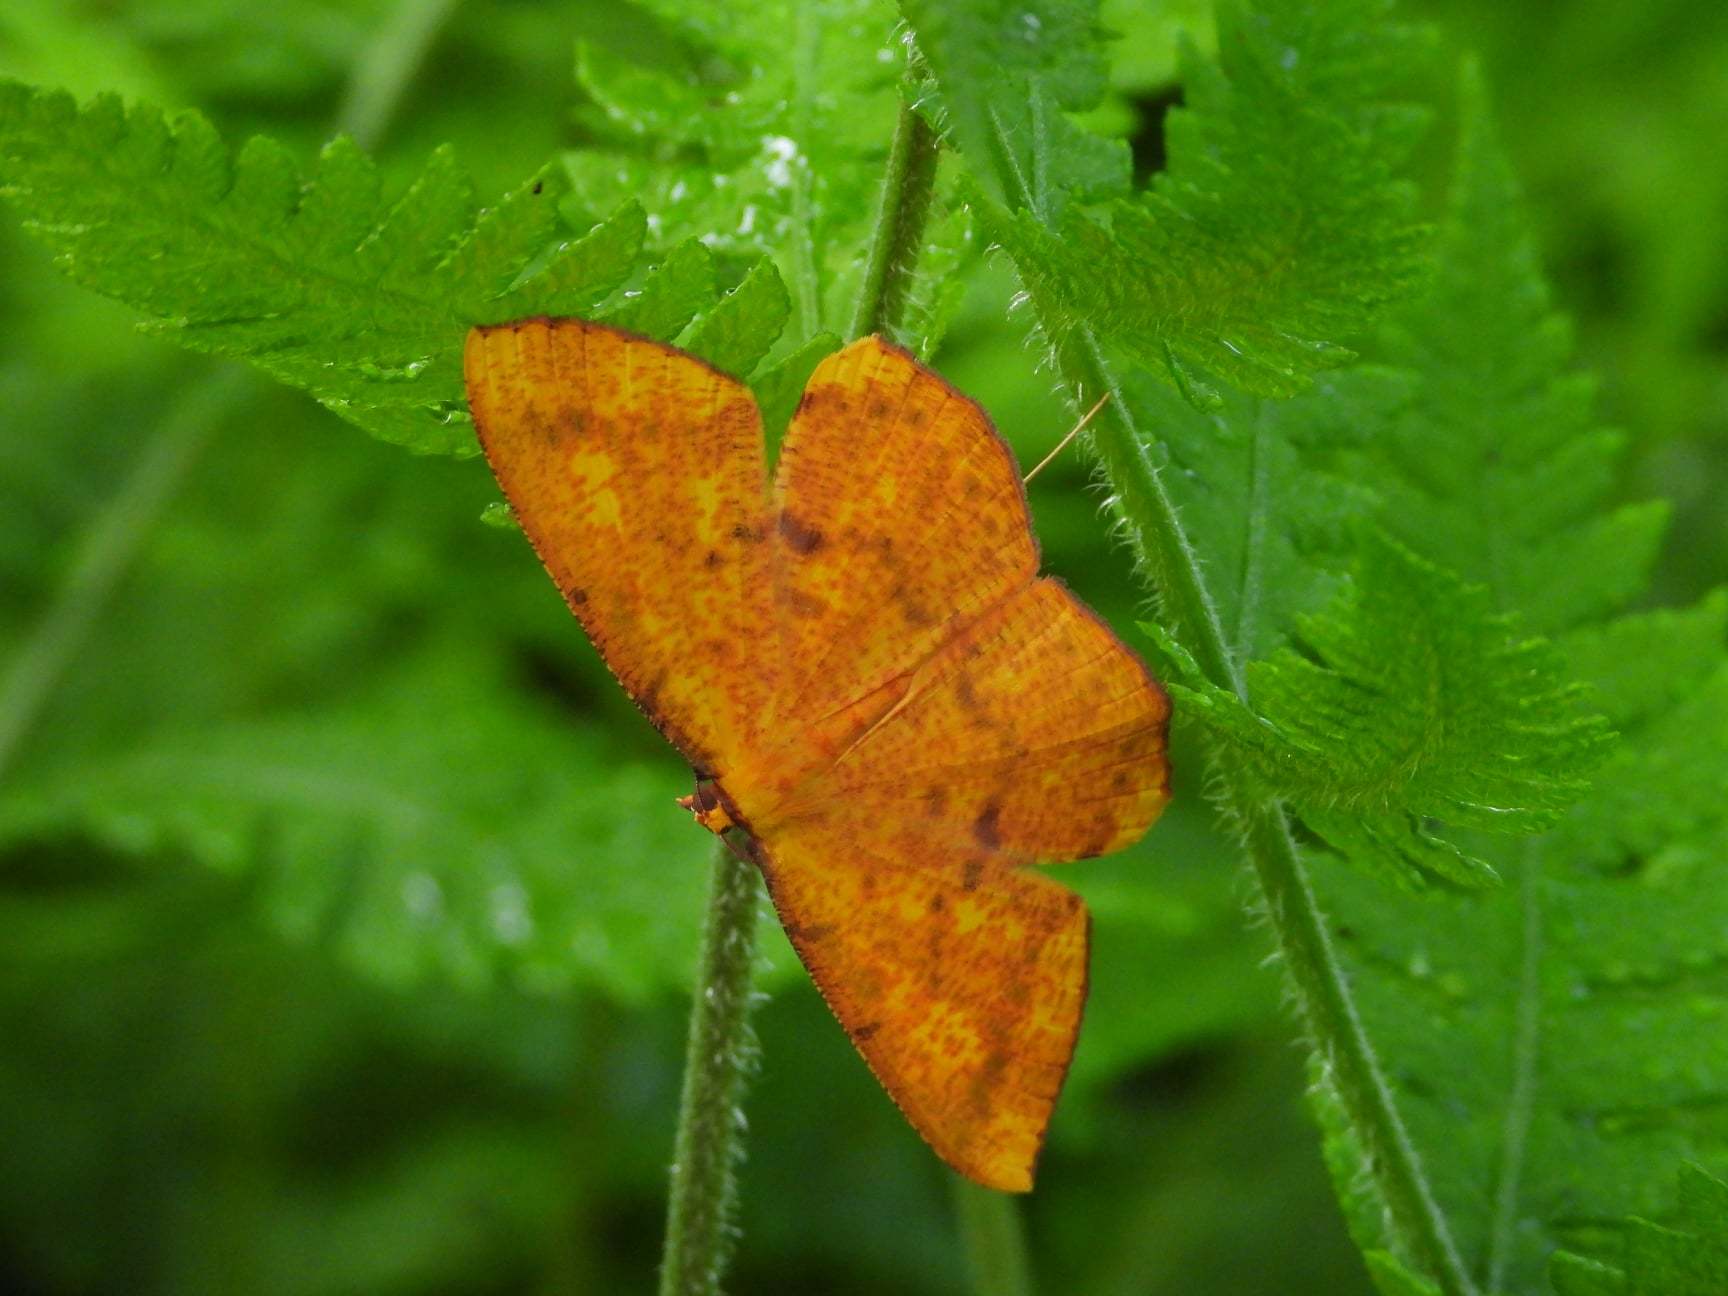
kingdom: Animalia
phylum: Arthropoda
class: Insecta
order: Lepidoptera
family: Geometridae
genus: Eumelea
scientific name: Eumelea ludovicata
